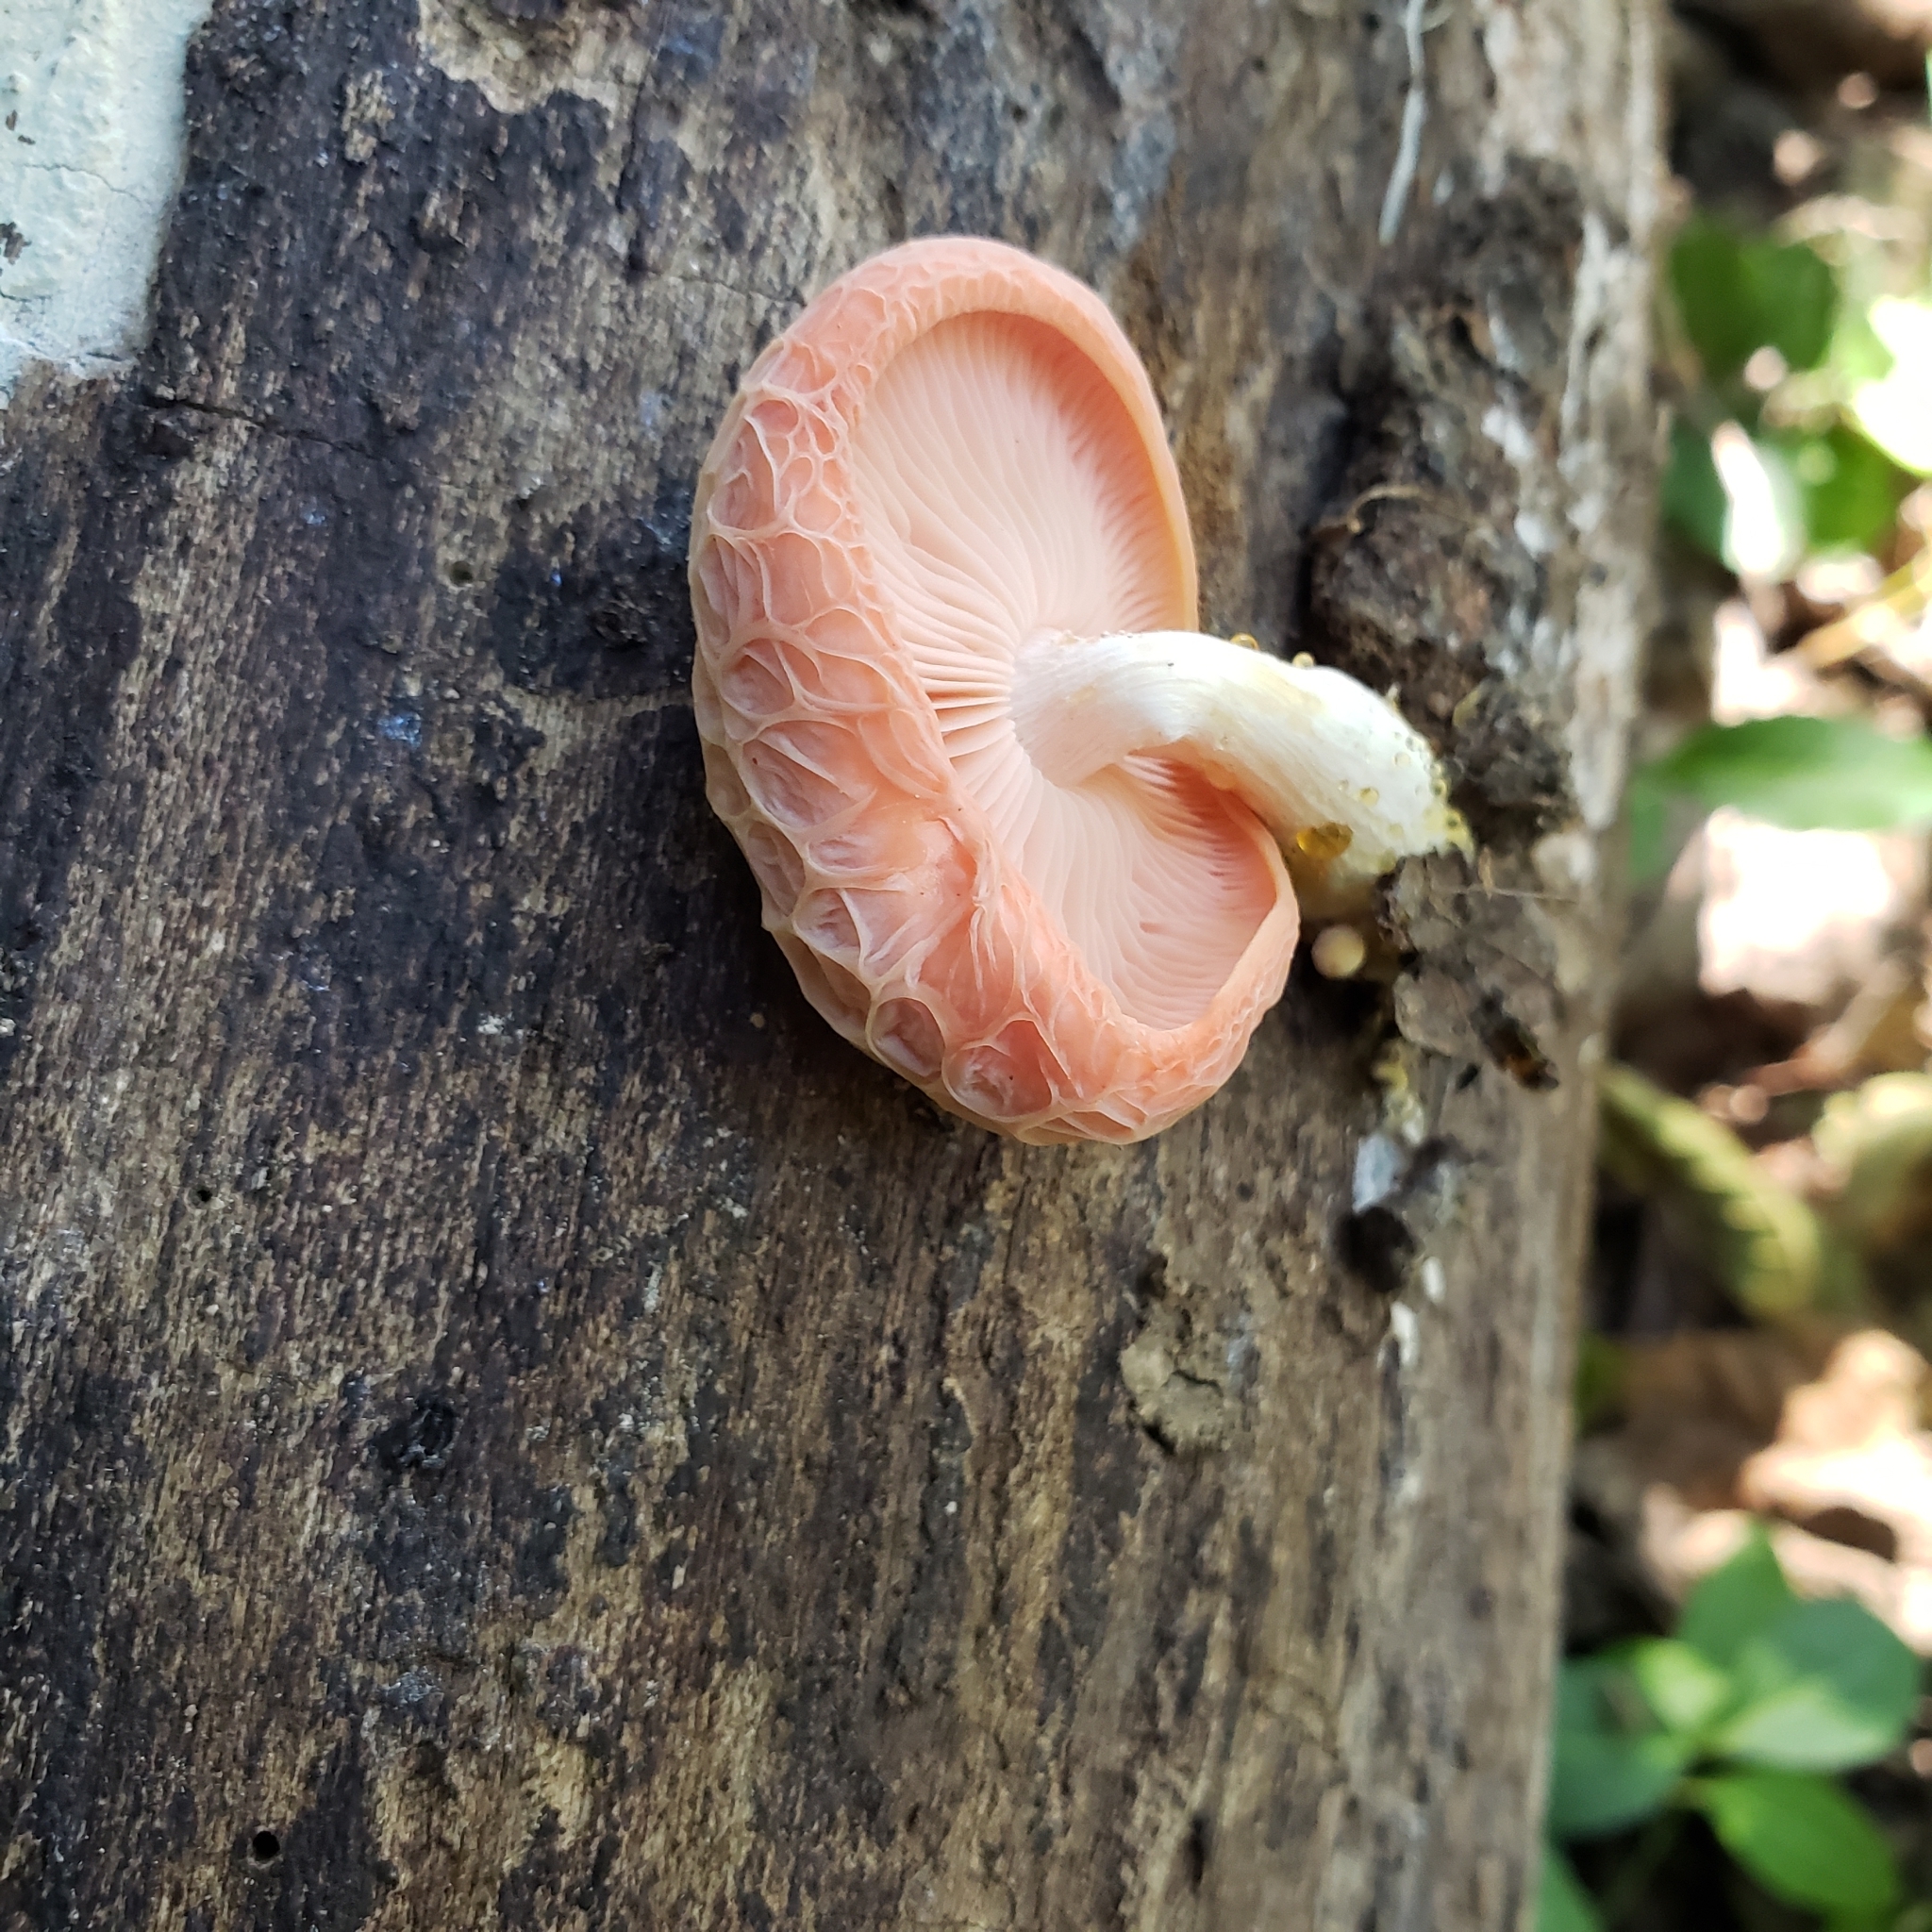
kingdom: Fungi
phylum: Basidiomycota
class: Agaricomycetes
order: Agaricales
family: Physalacriaceae
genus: Rhodotus
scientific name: Rhodotus palmatus
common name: Wrinkled peach
